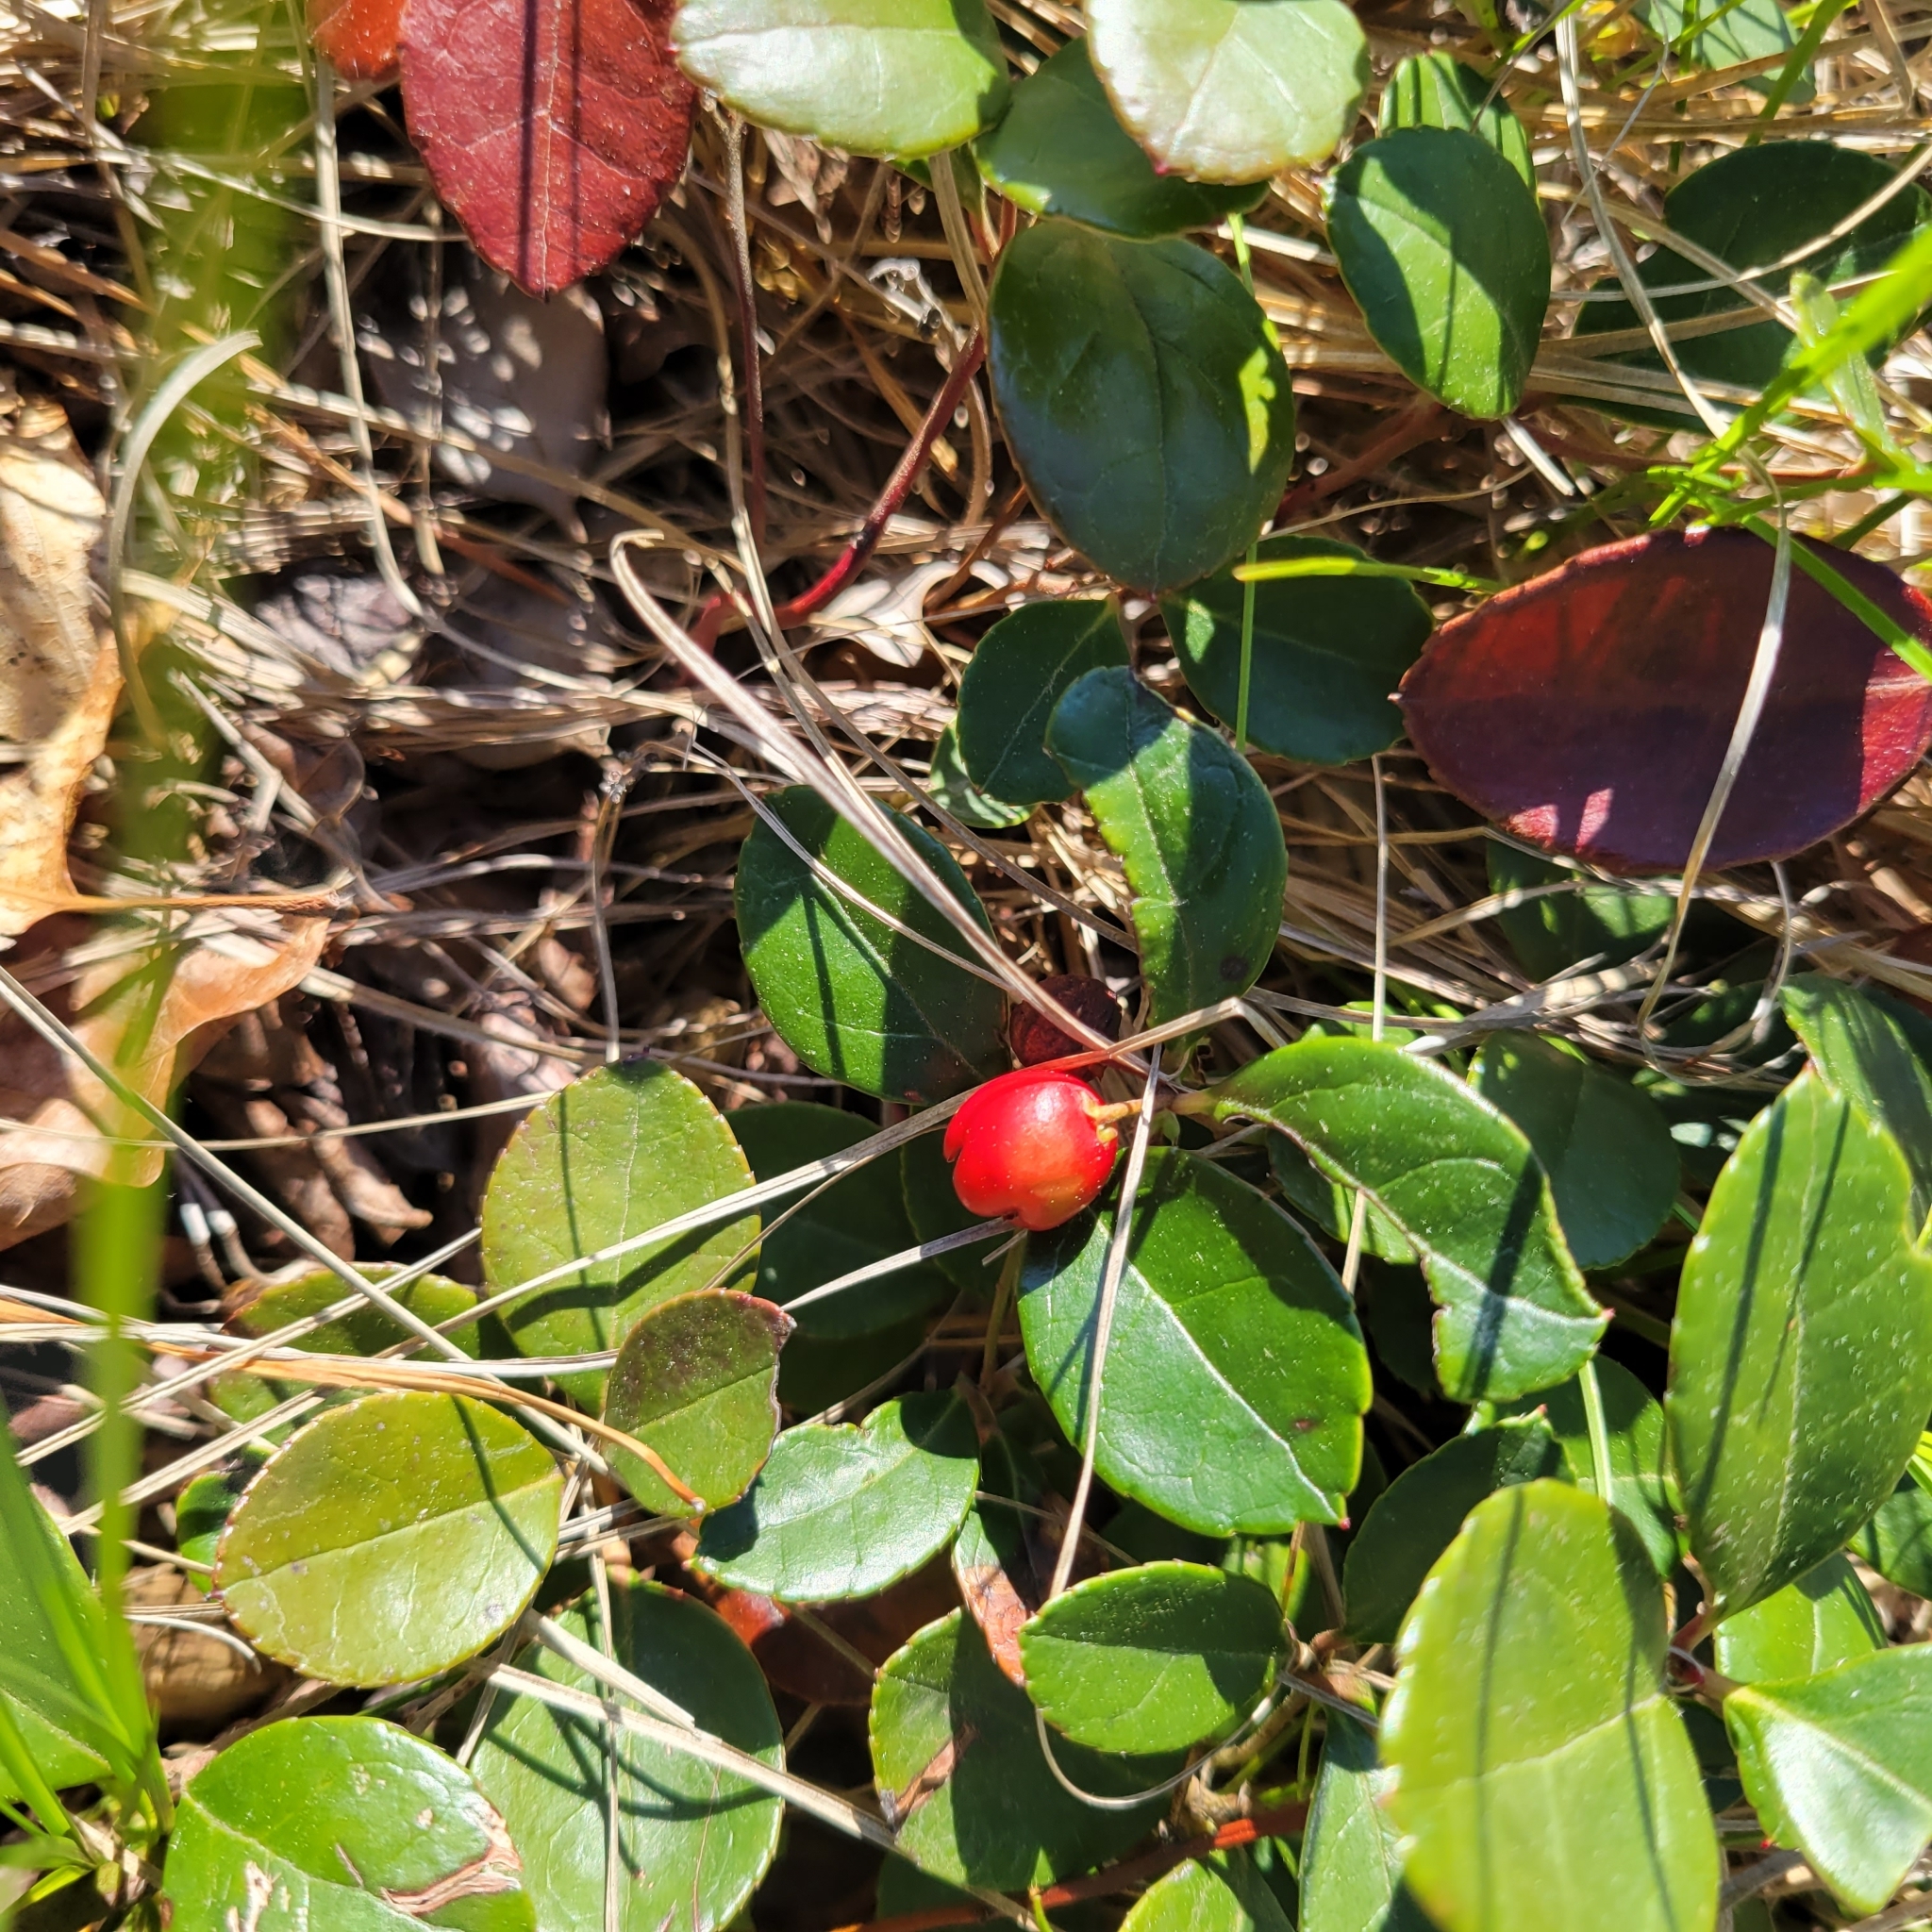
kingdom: Plantae
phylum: Tracheophyta
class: Magnoliopsida
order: Ericales
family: Ericaceae
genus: Gaultheria
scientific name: Gaultheria procumbens
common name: Checkerberry
